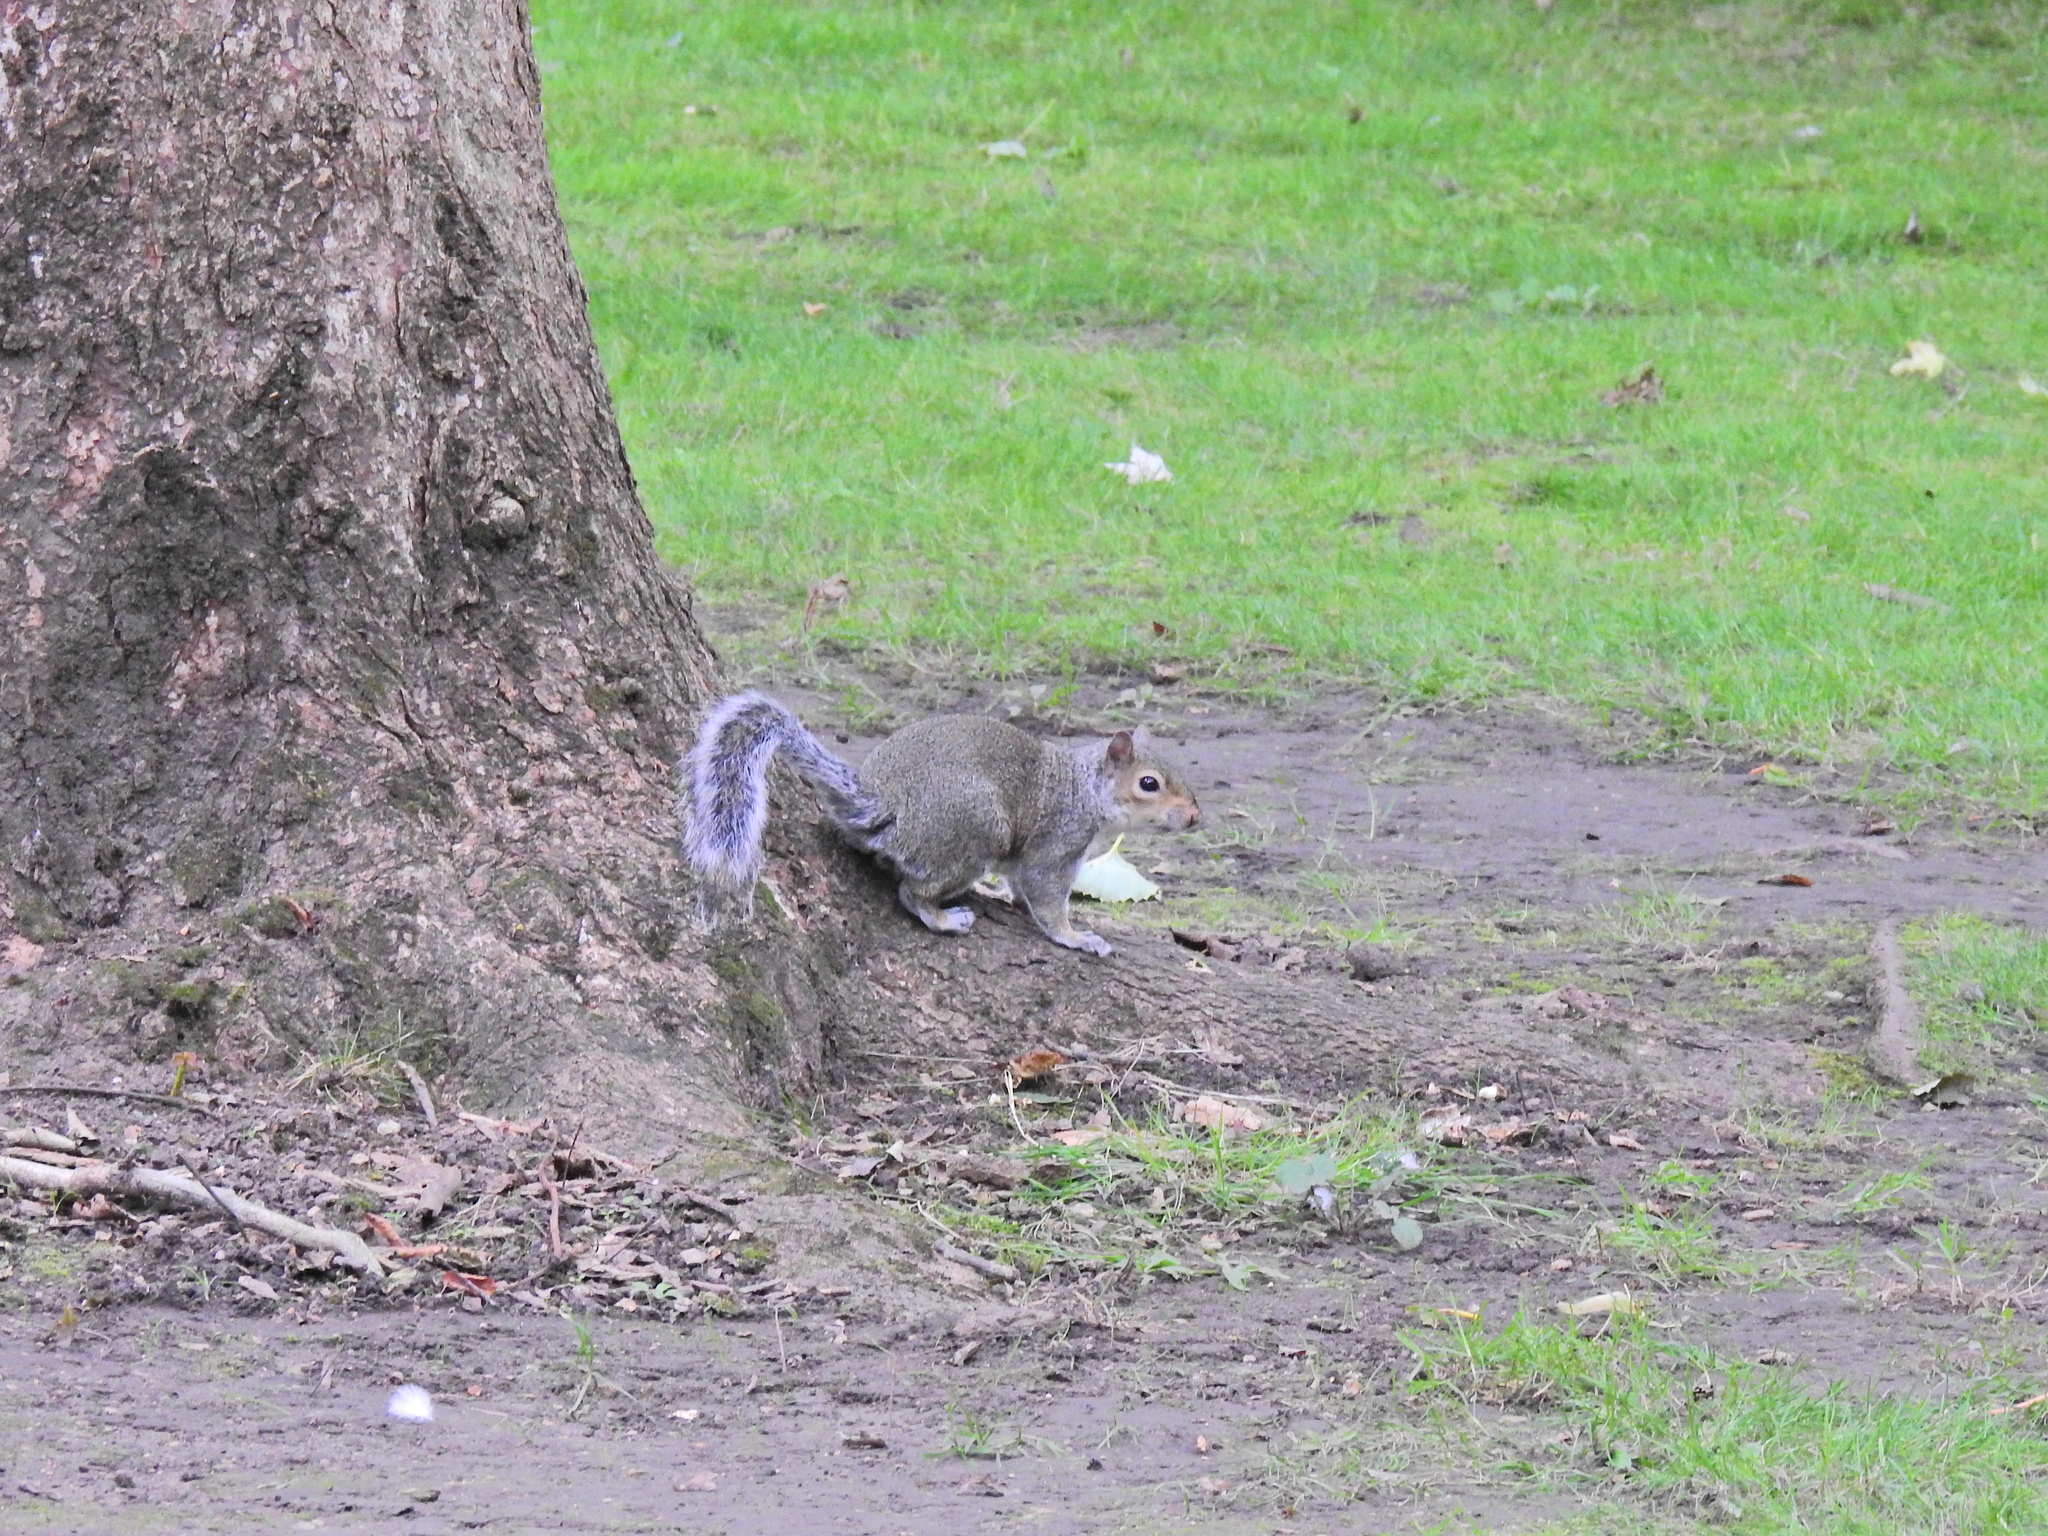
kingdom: Animalia
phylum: Chordata
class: Mammalia
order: Rodentia
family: Sciuridae
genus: Sciurus
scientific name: Sciurus carolinensis
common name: Eastern gray squirrel
